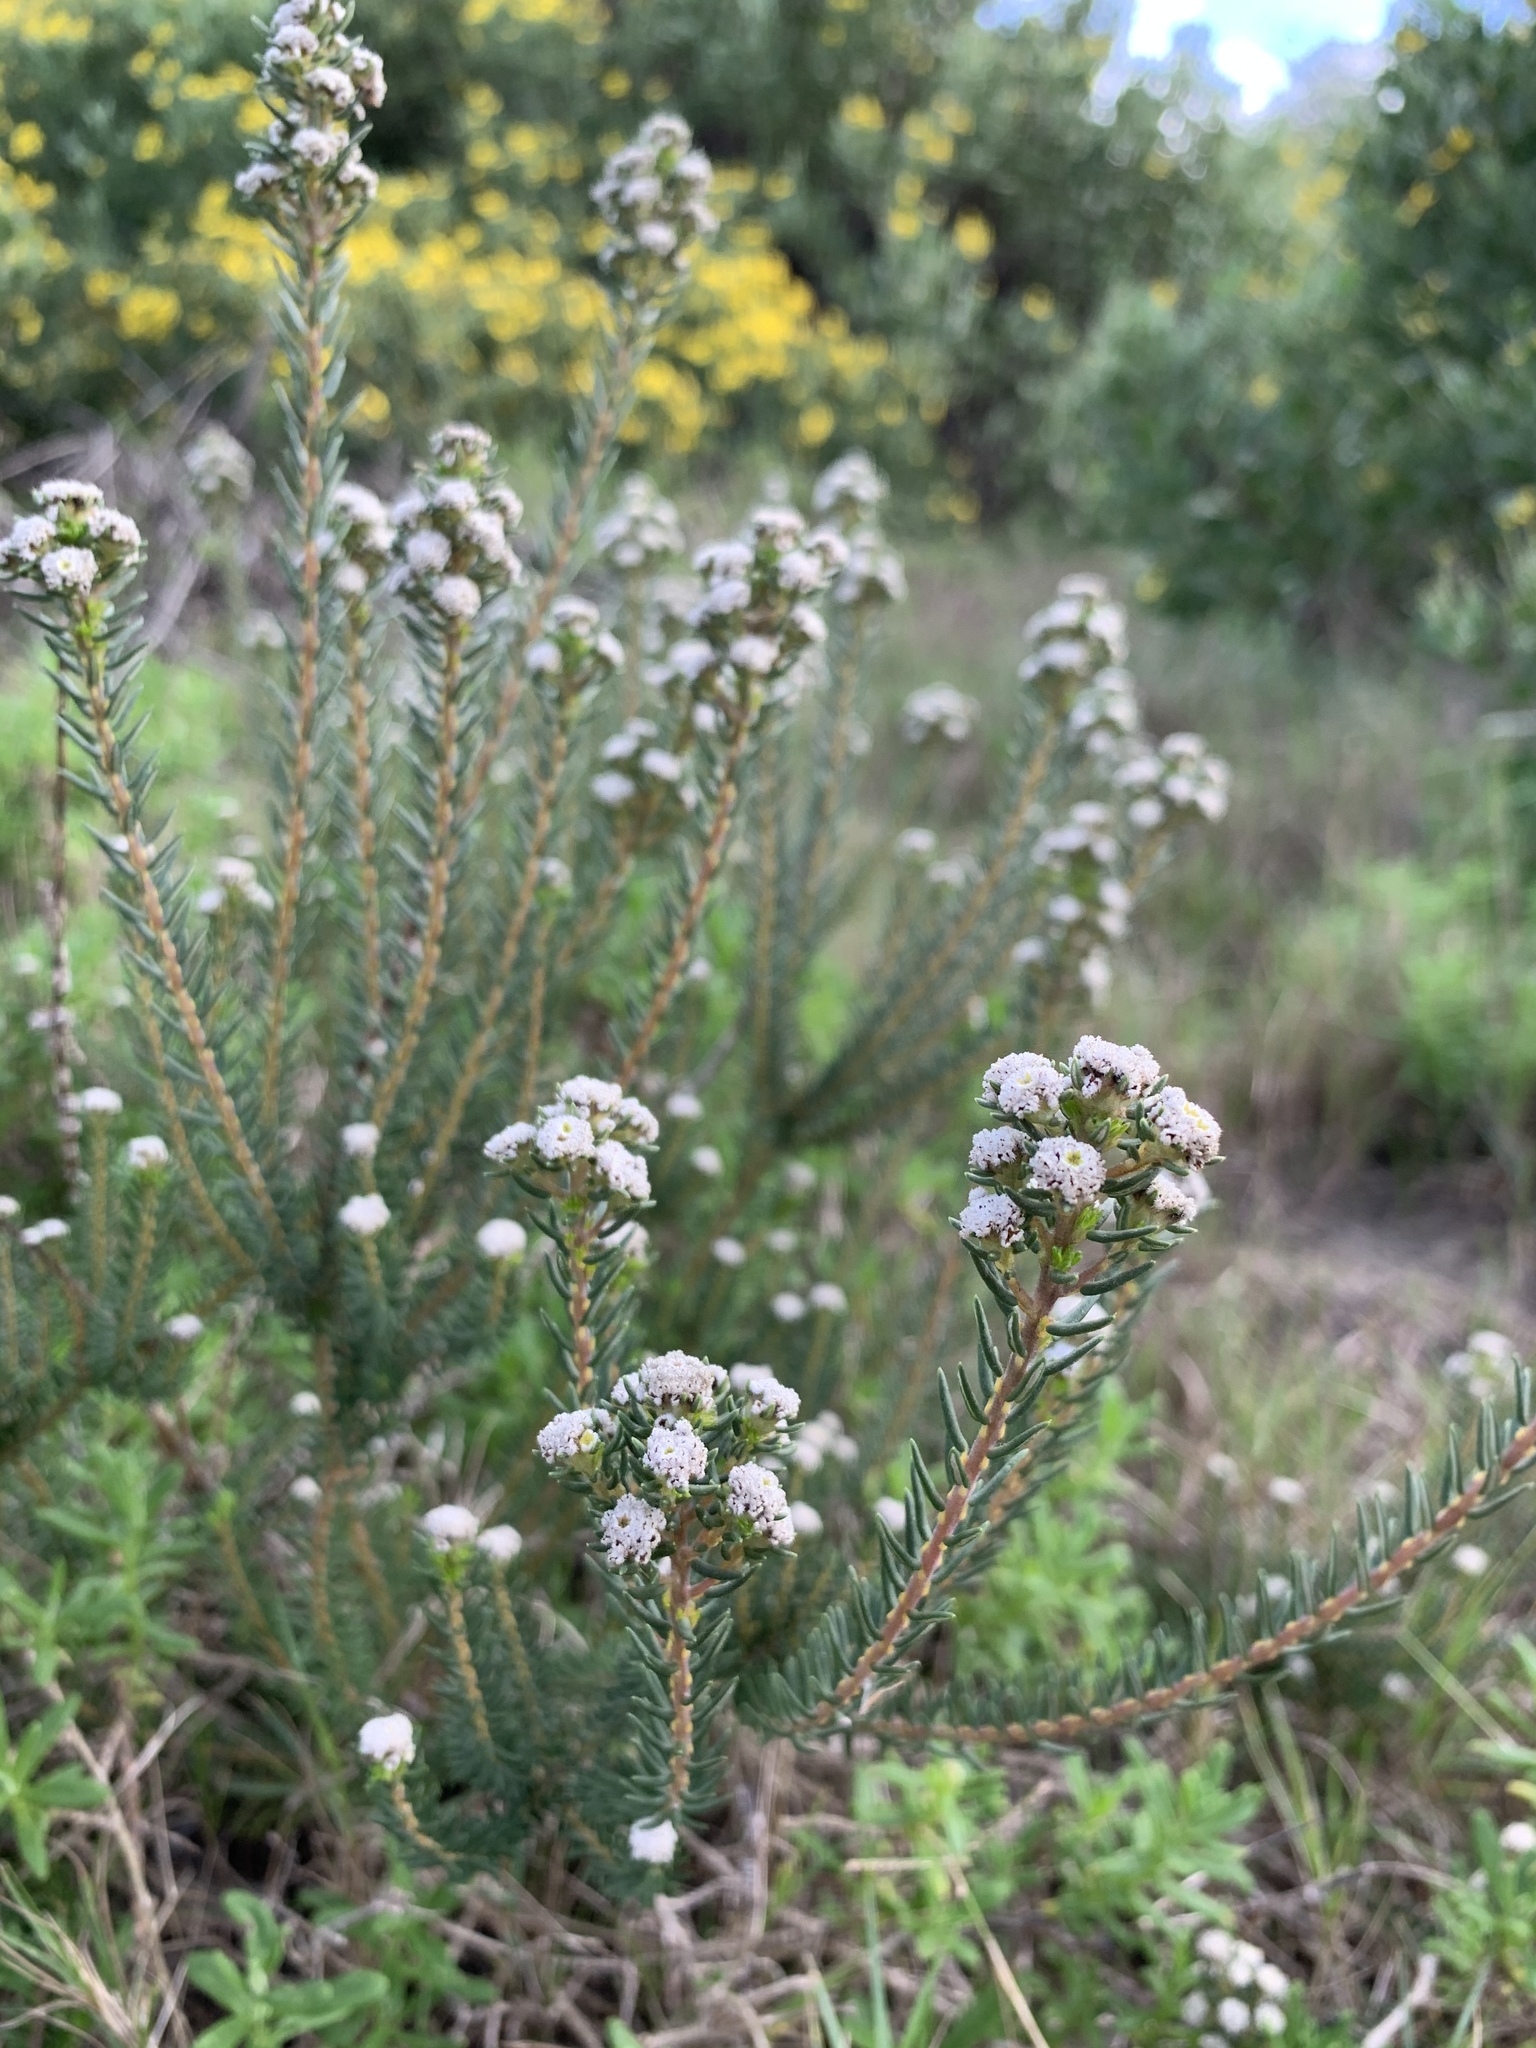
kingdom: Plantae
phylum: Tracheophyta
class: Magnoliopsida
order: Rosales
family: Rhamnaceae
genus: Phylica
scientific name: Phylica ericoides
